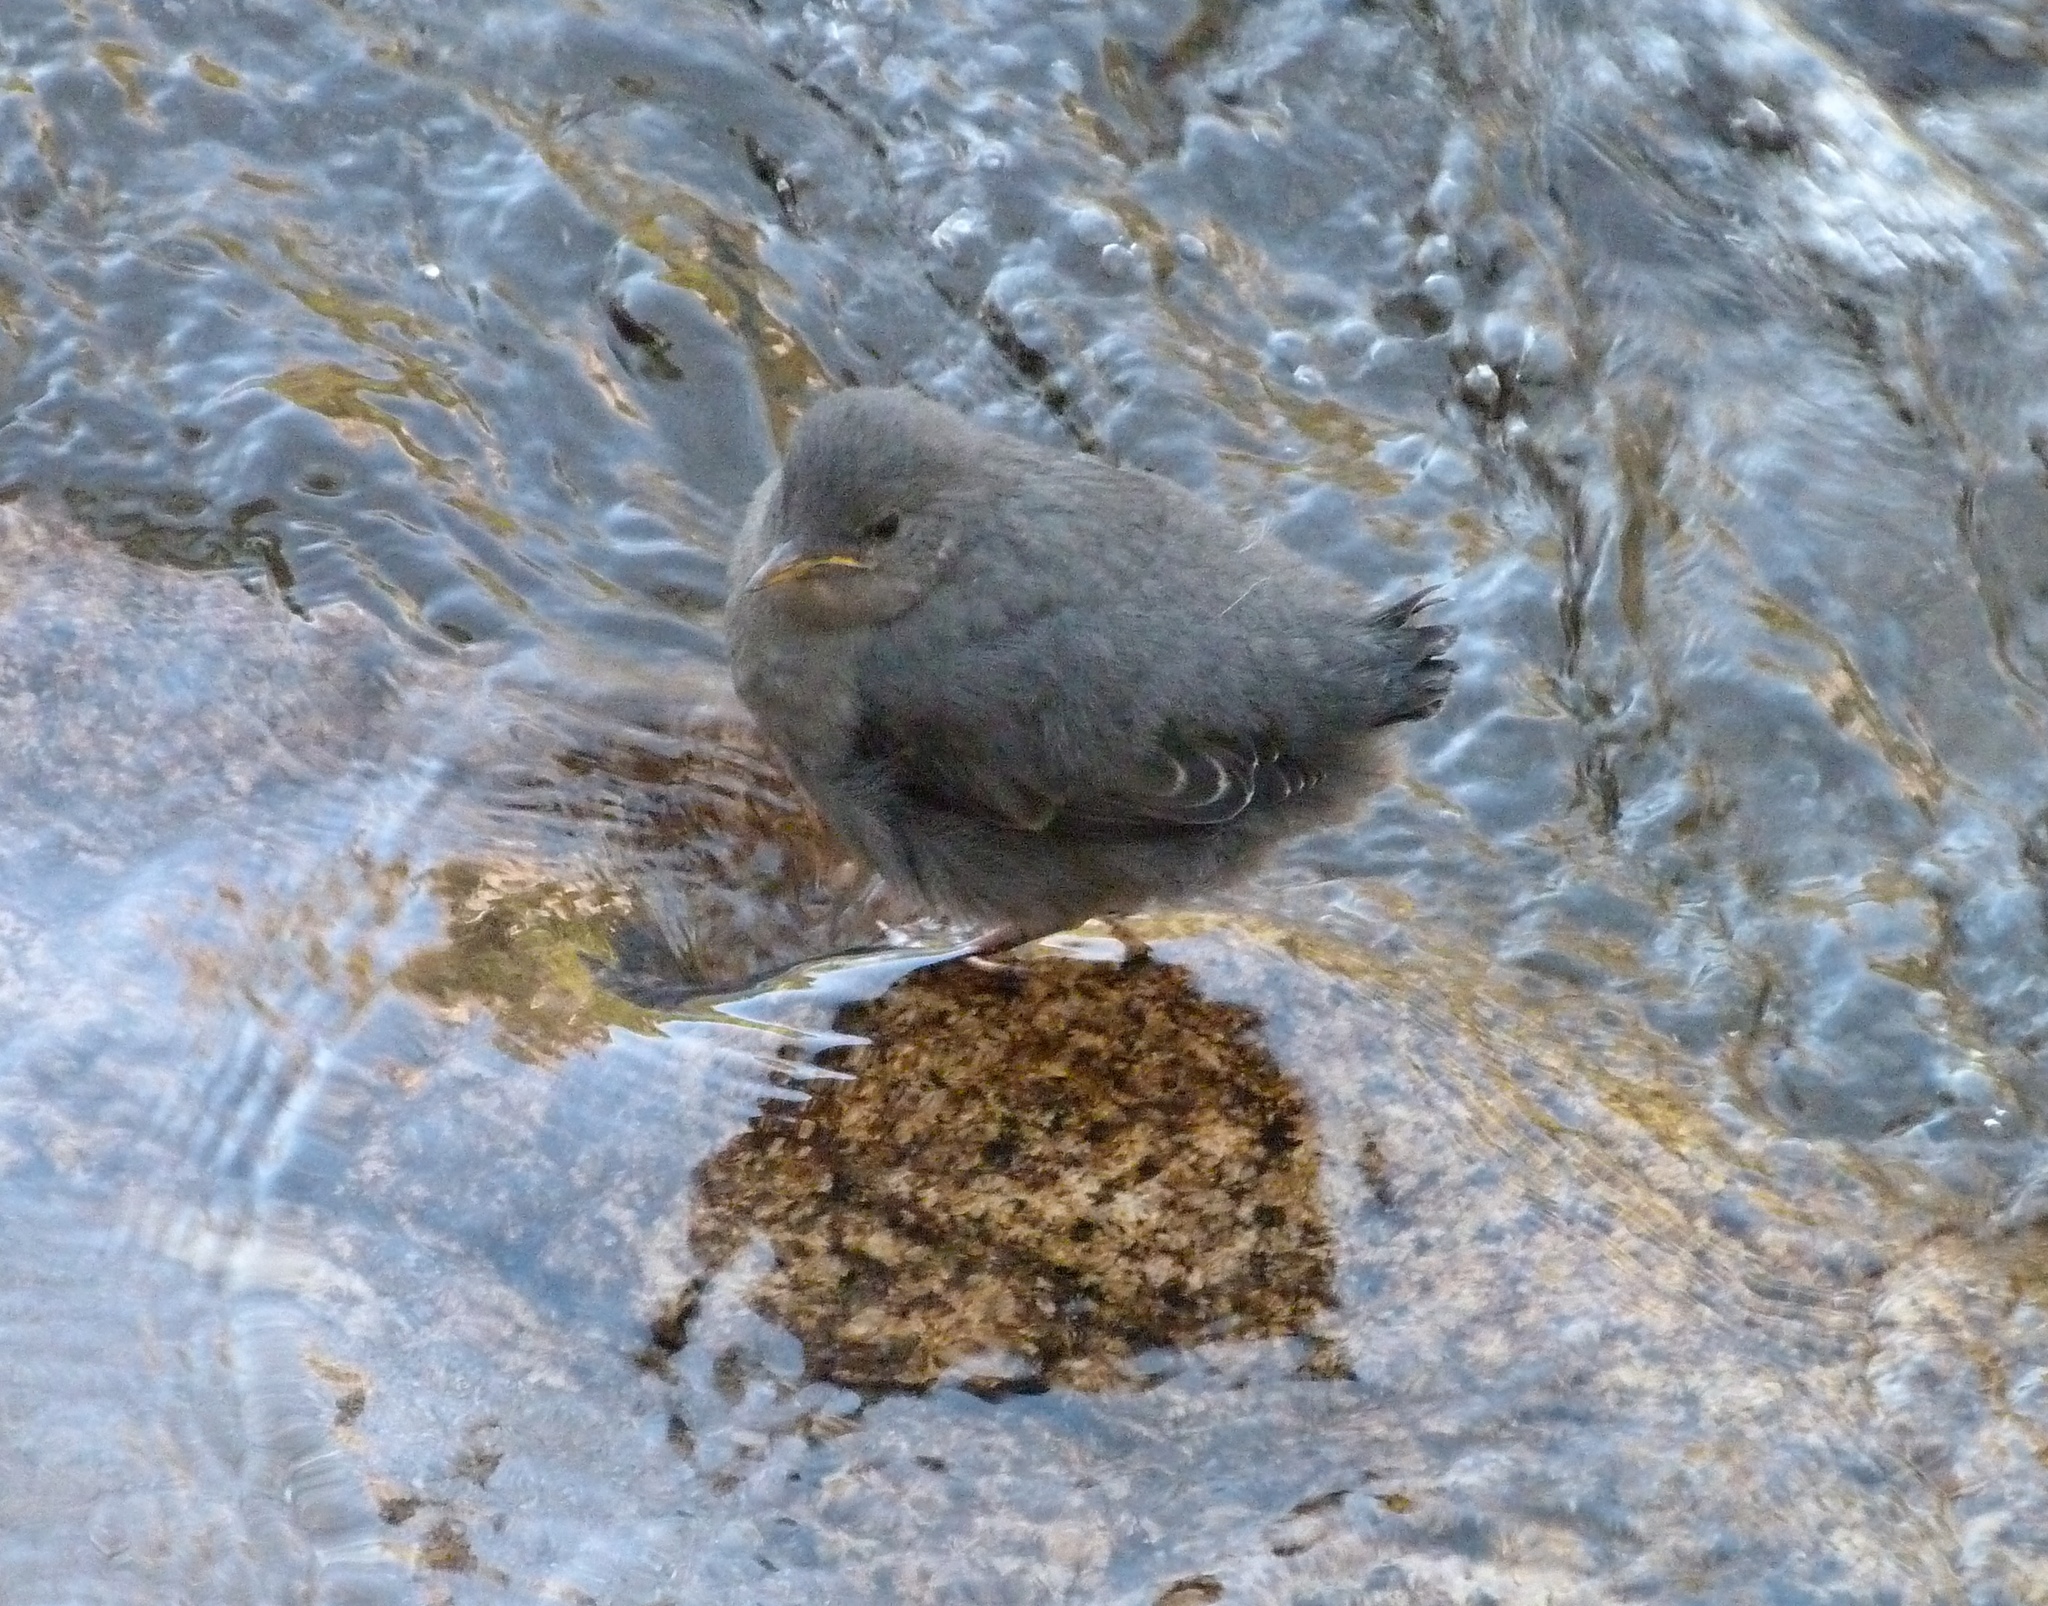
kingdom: Animalia
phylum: Chordata
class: Aves
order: Passeriformes
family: Cinclidae
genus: Cinclus
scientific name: Cinclus mexicanus
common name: American dipper
